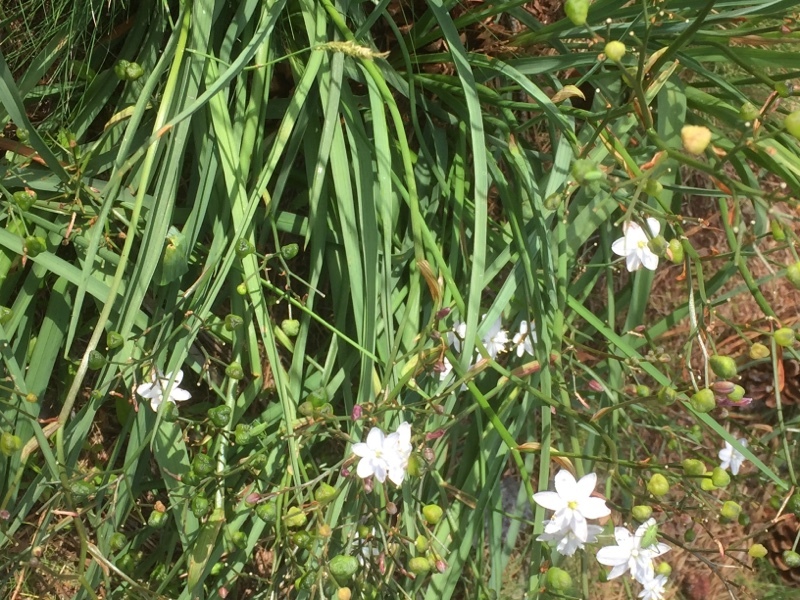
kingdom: Plantae
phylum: Tracheophyta
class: Liliopsida
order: Asparagales
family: Asphodelaceae
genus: Simethis
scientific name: Simethis mattiazzii
